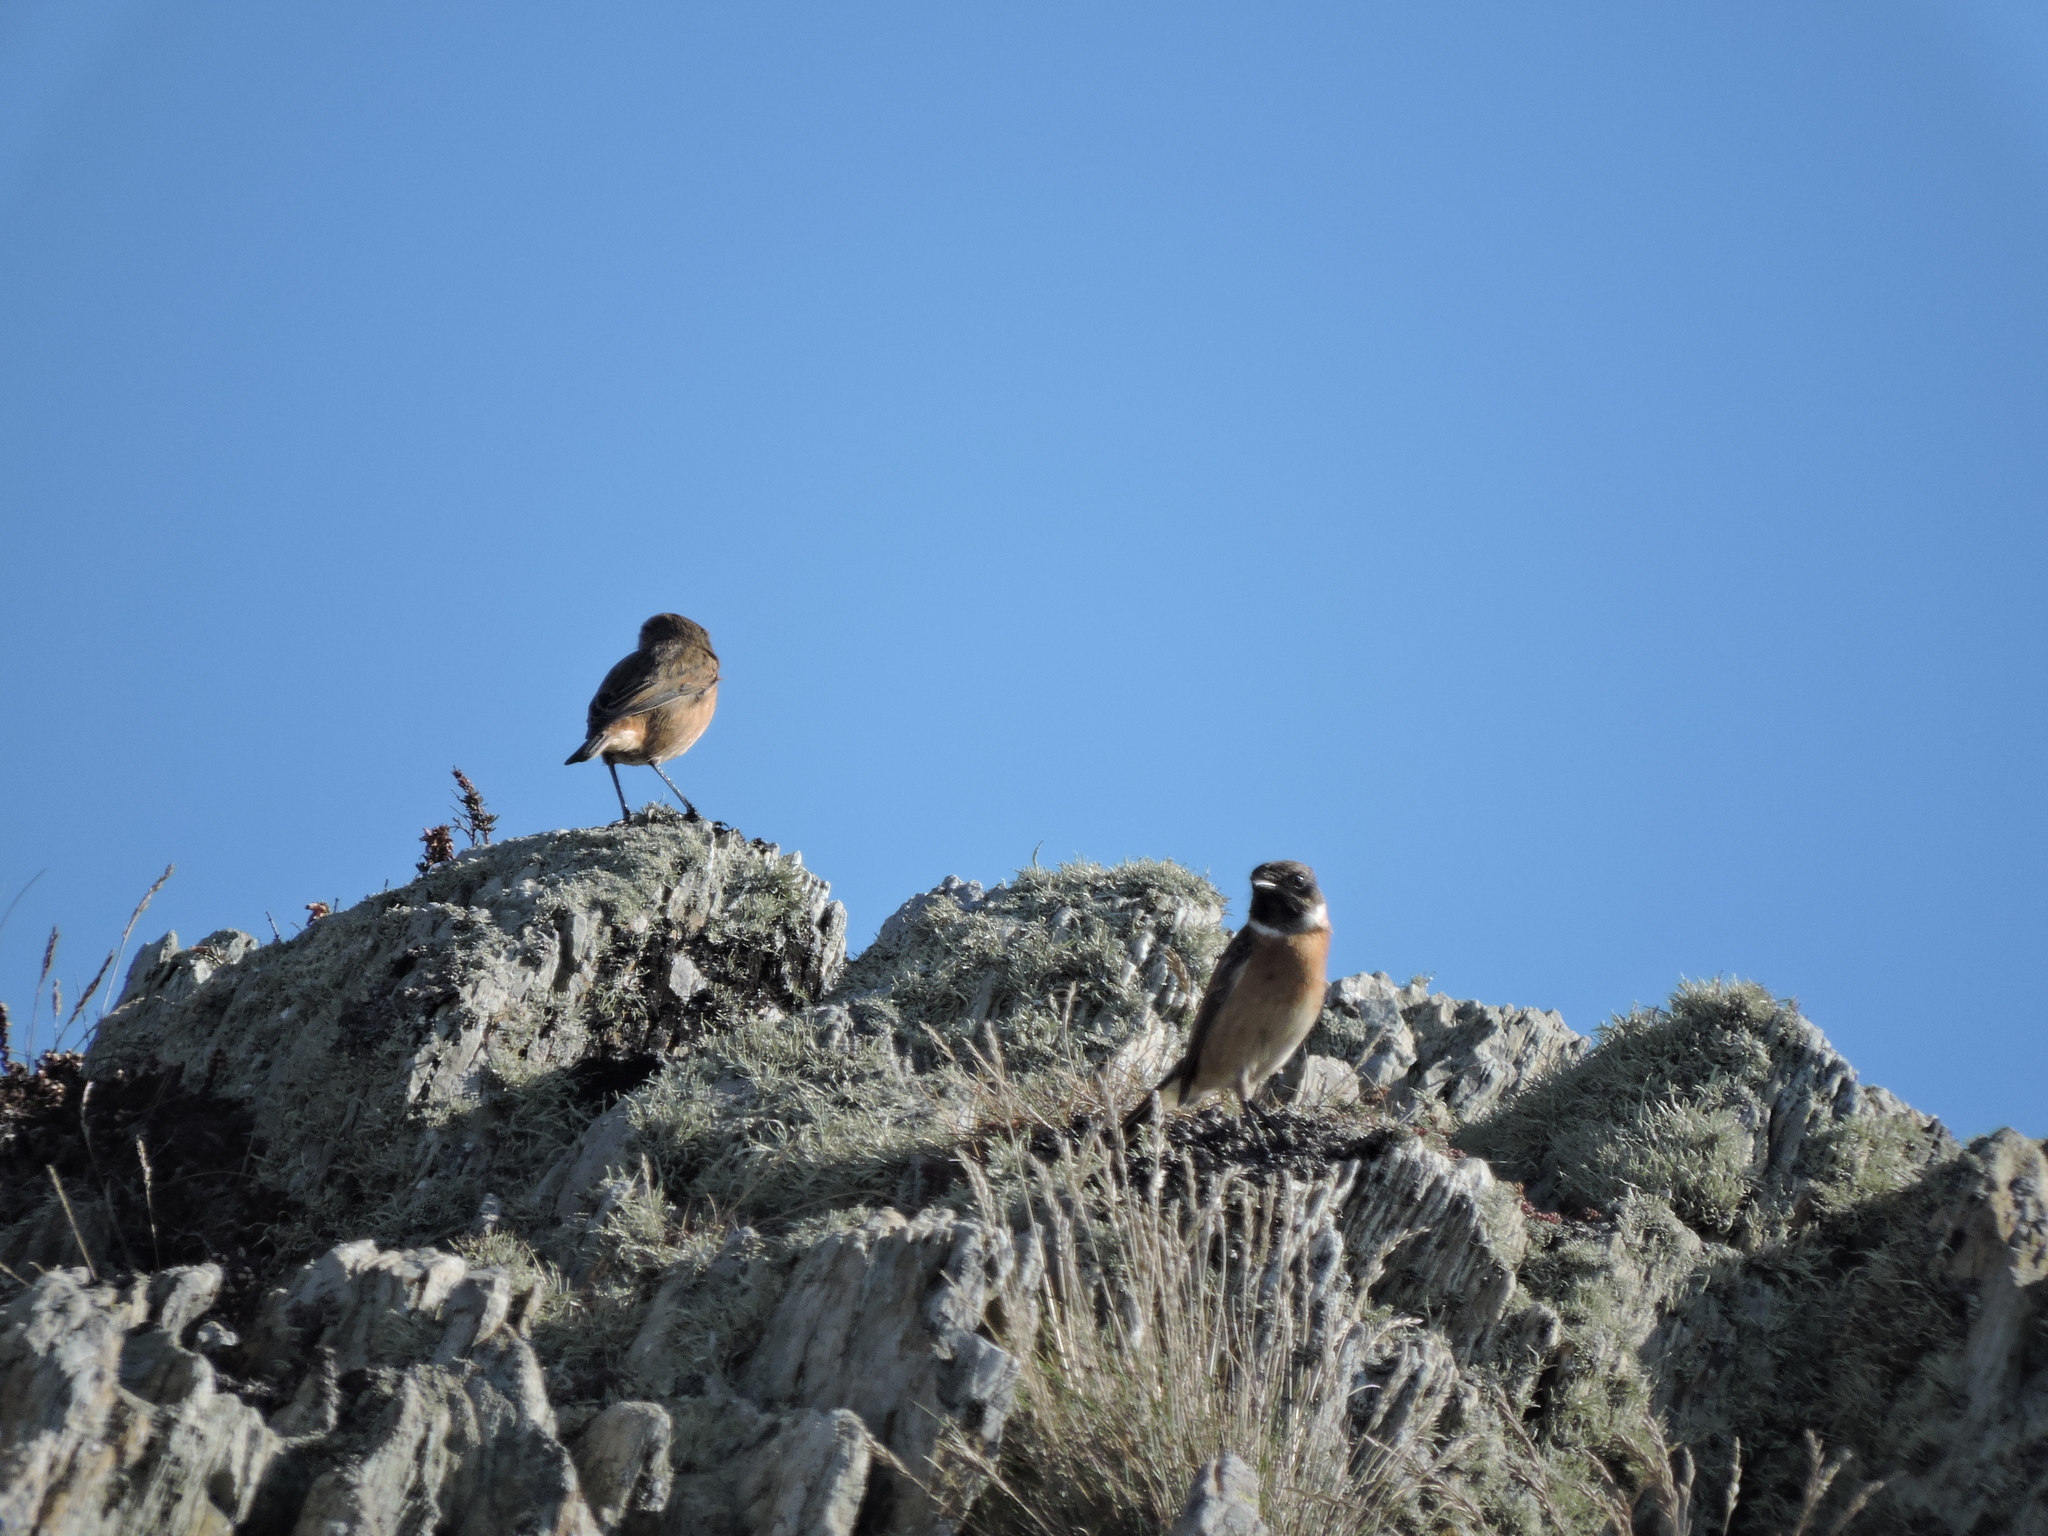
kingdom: Animalia
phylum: Chordata
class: Aves
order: Passeriformes
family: Muscicapidae
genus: Saxicola
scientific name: Saxicola rubicola
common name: European stonechat
